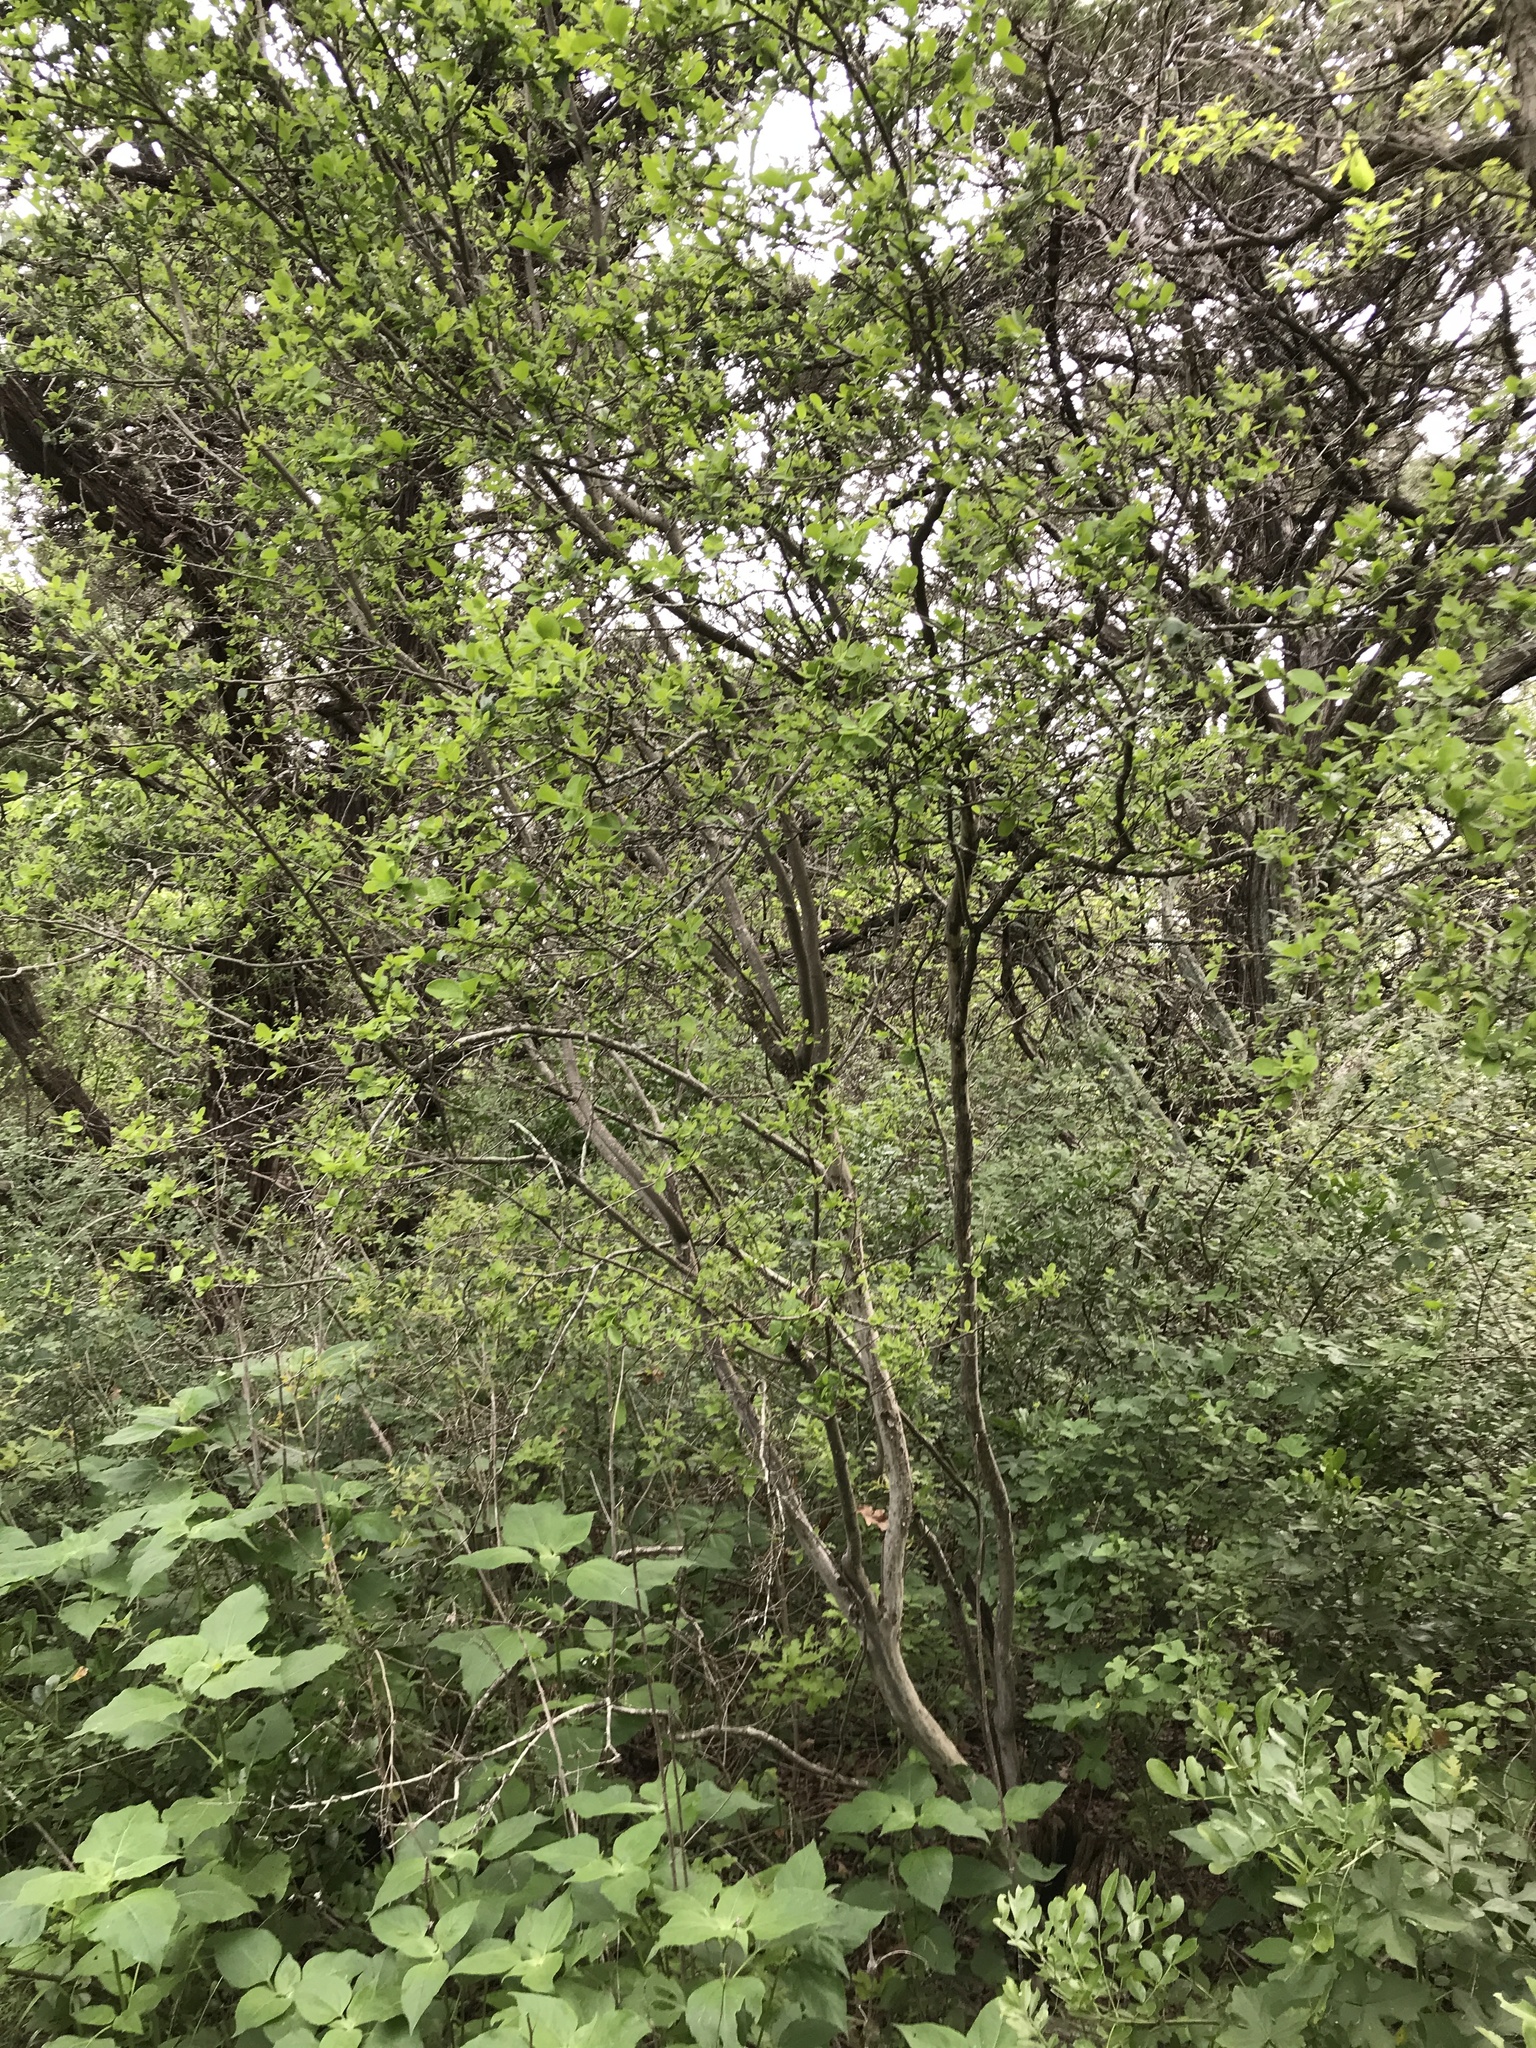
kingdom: Plantae
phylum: Tracheophyta
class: Magnoliopsida
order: Ericales
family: Ebenaceae
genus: Diospyros
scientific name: Diospyros texana
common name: Texas persimmon
